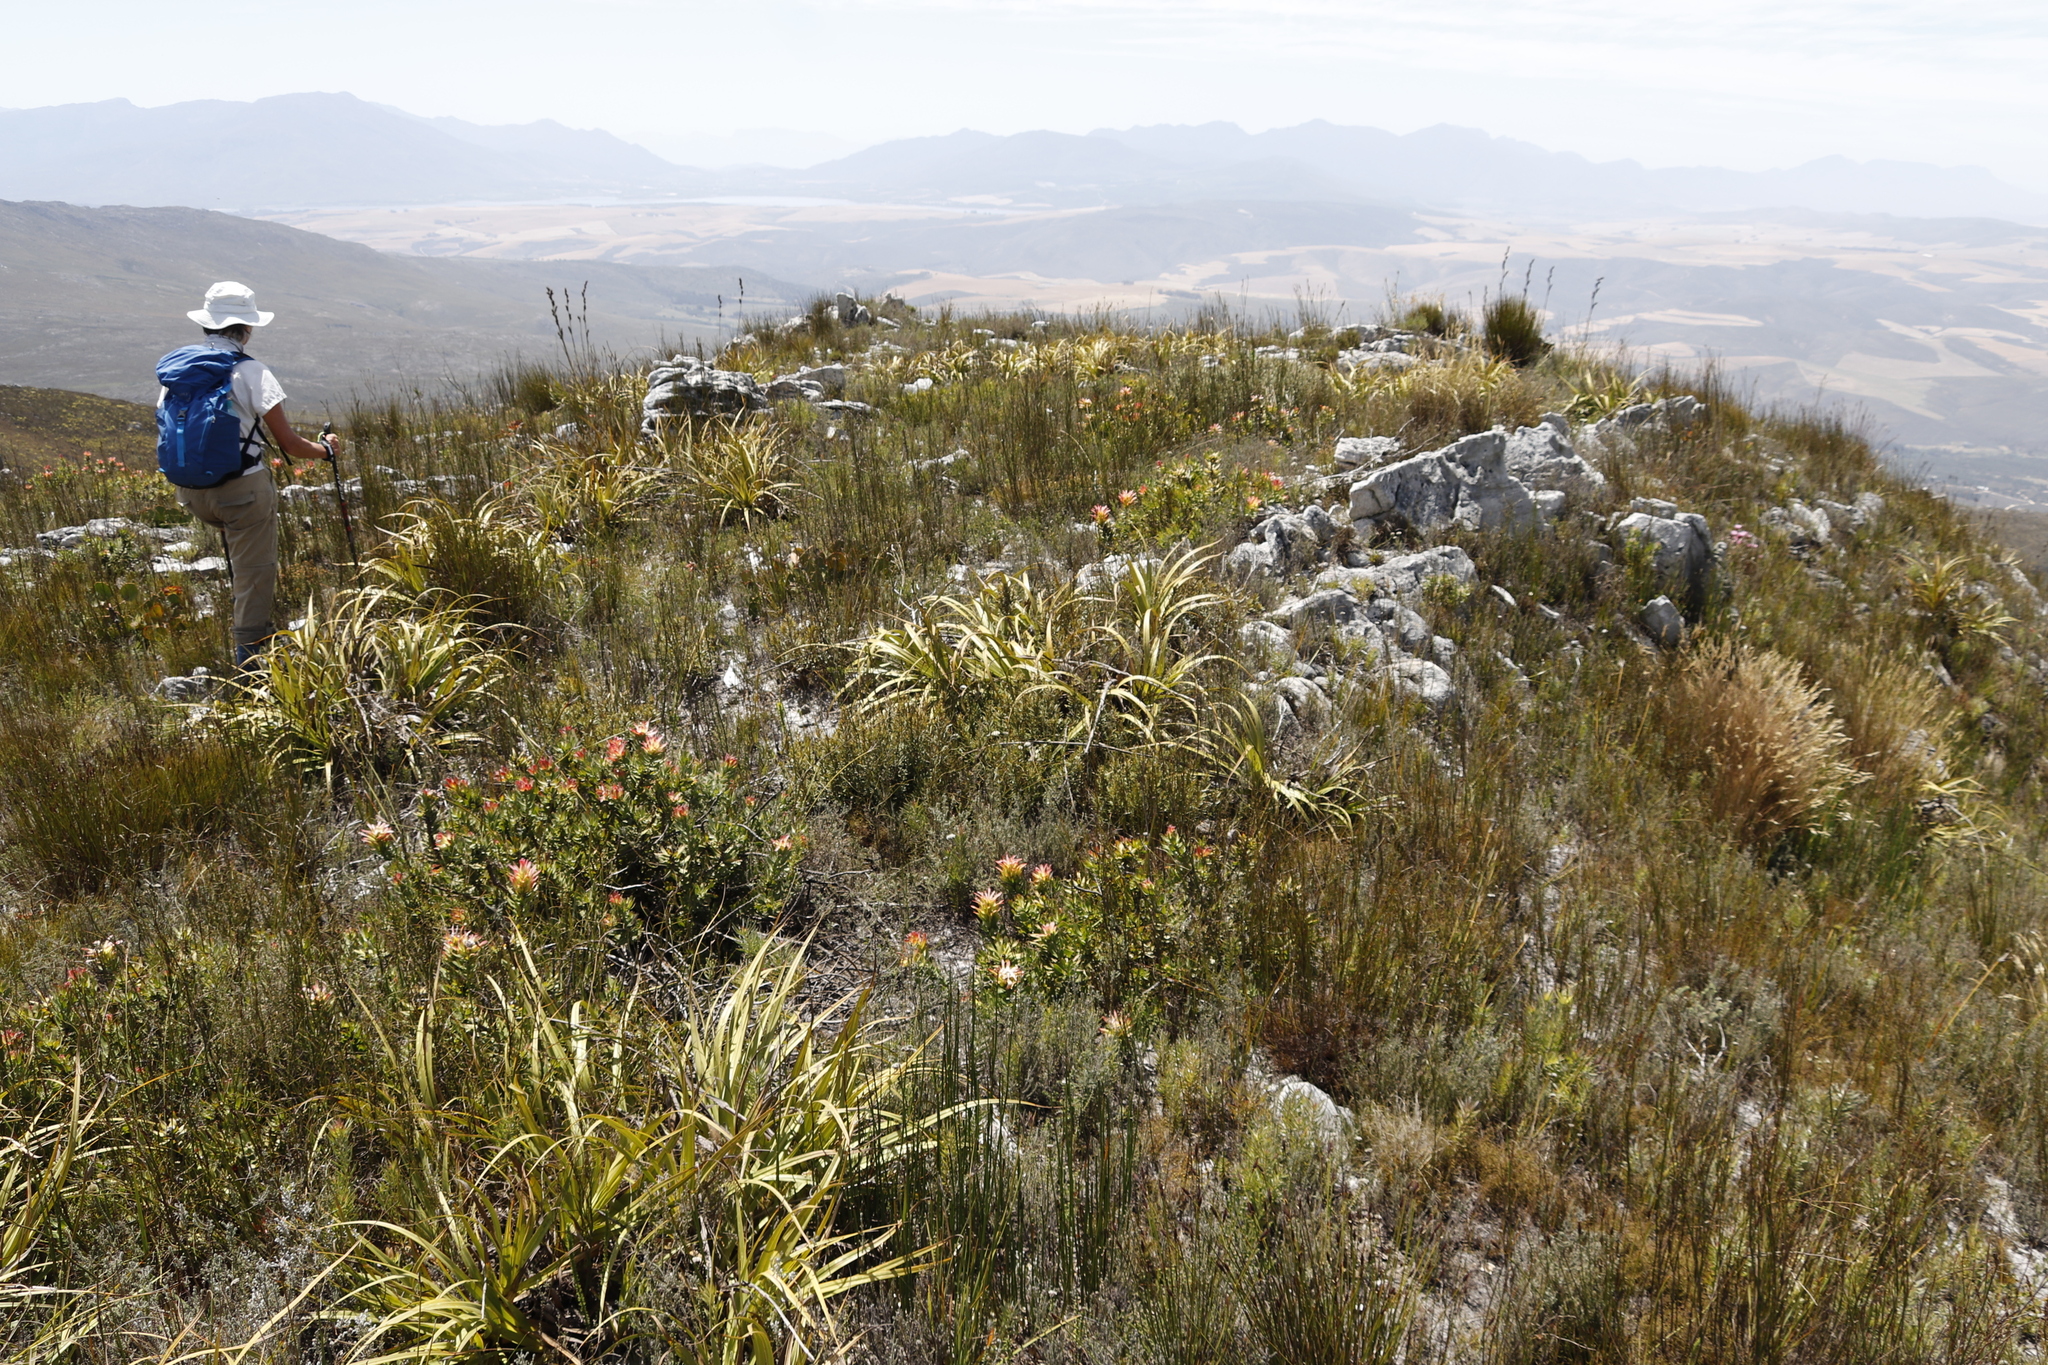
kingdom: Plantae
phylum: Tracheophyta
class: Liliopsida
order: Poales
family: Cyperaceae
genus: Tetraria
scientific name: Tetraria thermalis
